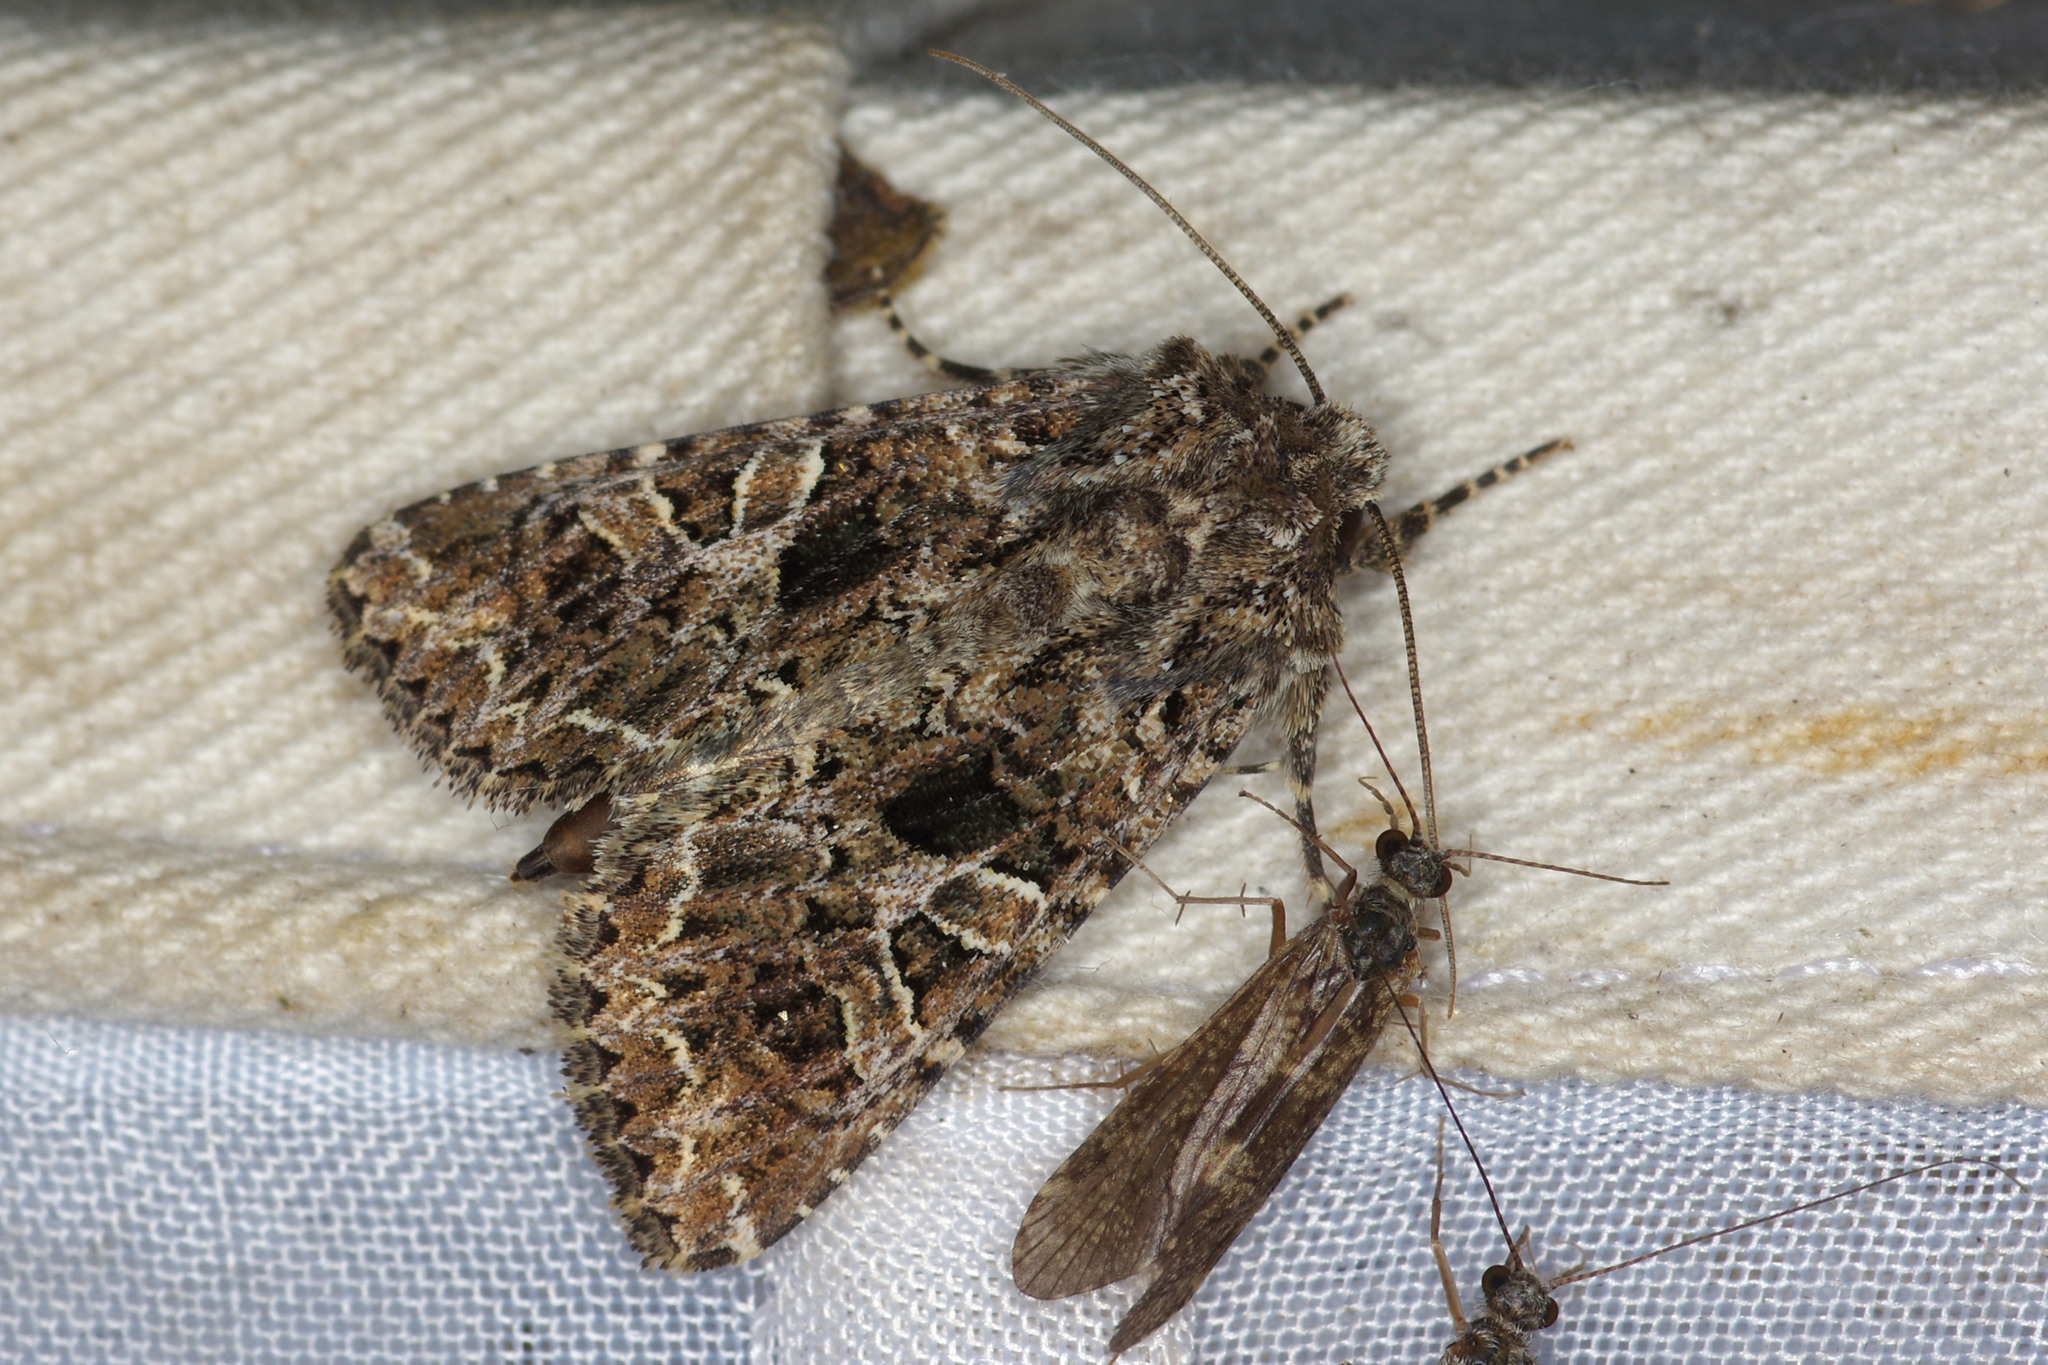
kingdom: Animalia
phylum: Arthropoda
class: Insecta
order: Lepidoptera
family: Noctuidae
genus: Sideridis
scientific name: Sideridis rivularis
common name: Campion
